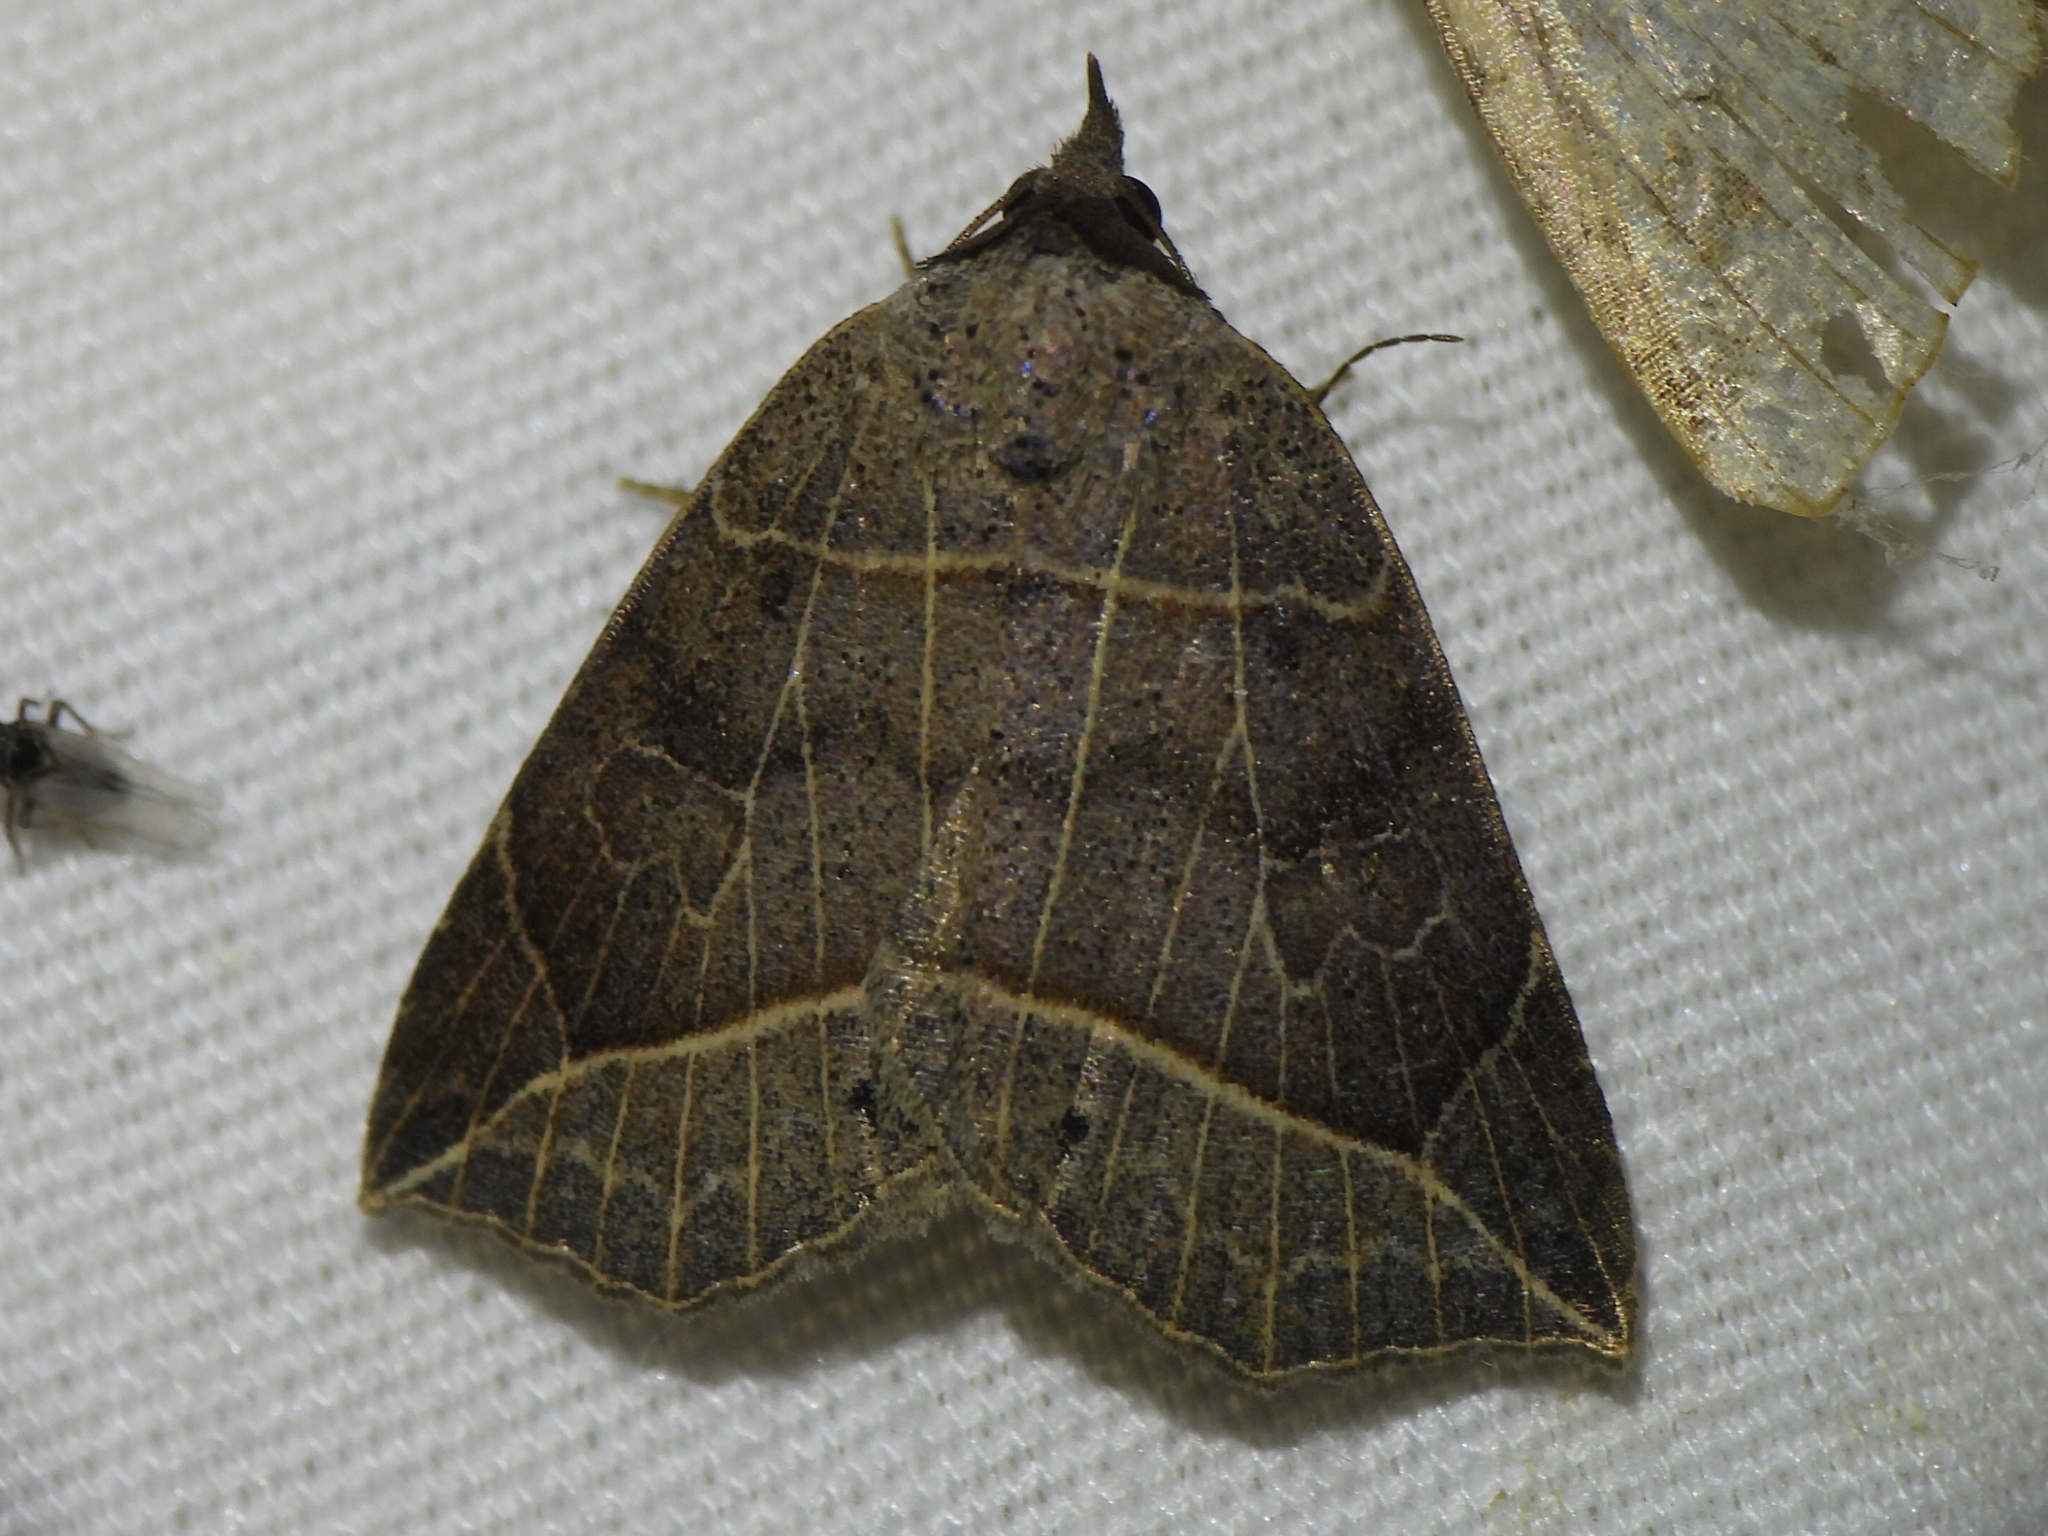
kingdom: Animalia
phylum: Arthropoda
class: Insecta
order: Lepidoptera
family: Erebidae
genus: Isogona
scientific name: Isogona tenuis
